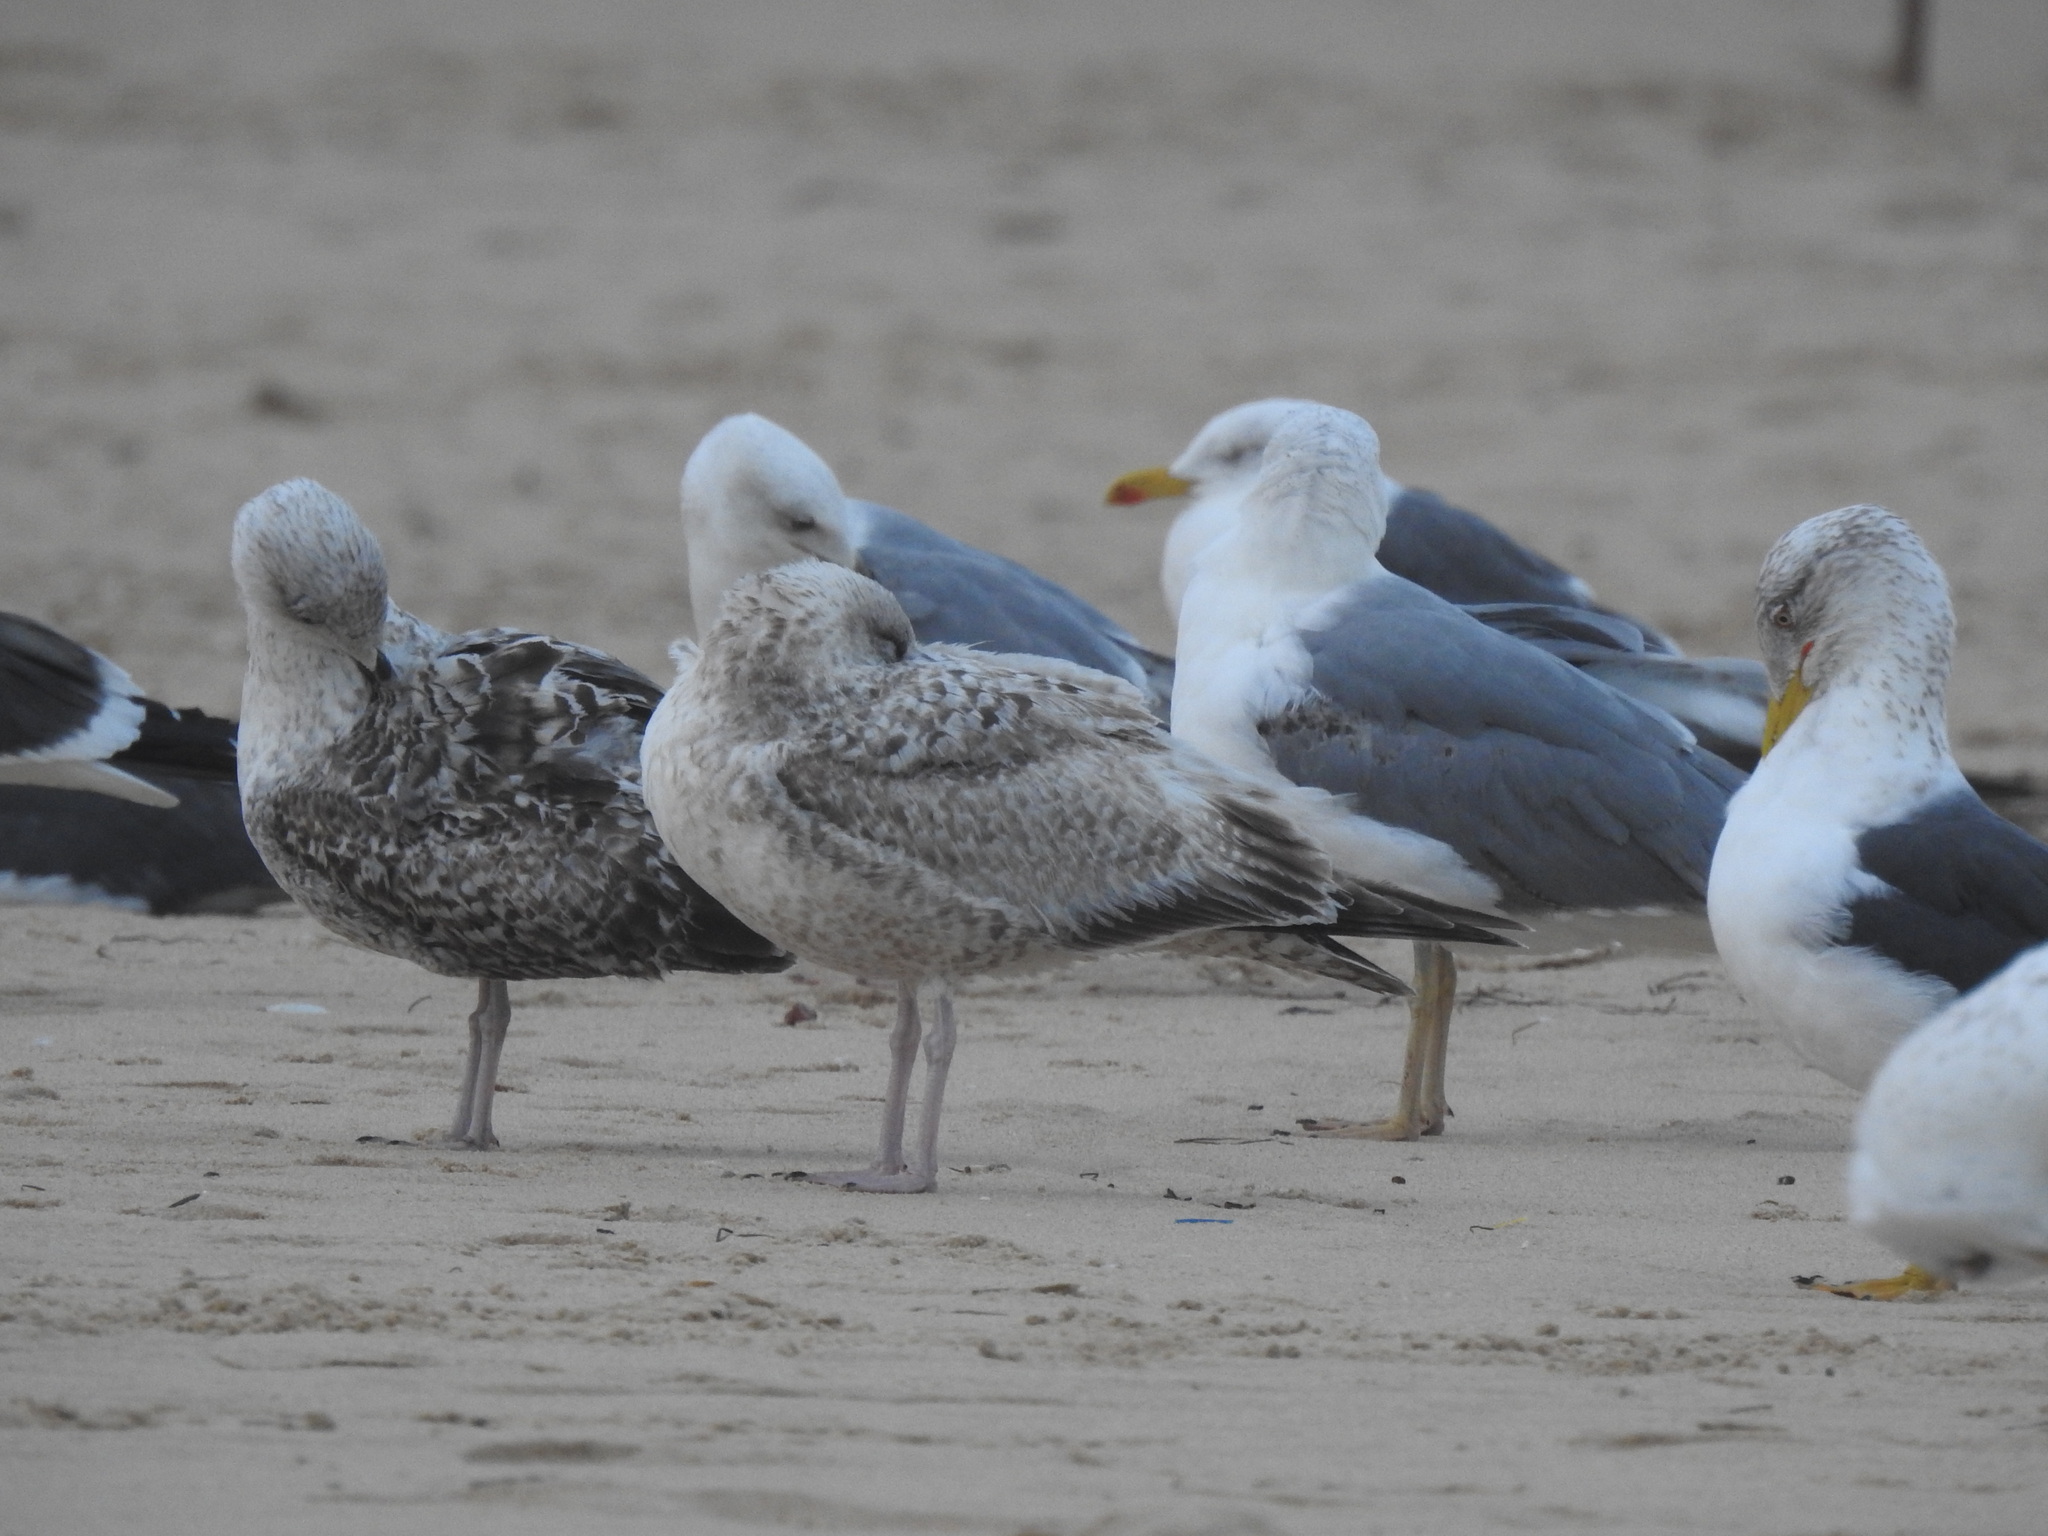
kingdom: Animalia
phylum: Chordata
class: Aves
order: Charadriiformes
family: Laridae
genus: Larus
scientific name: Larus michahellis
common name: Yellow-legged gull
